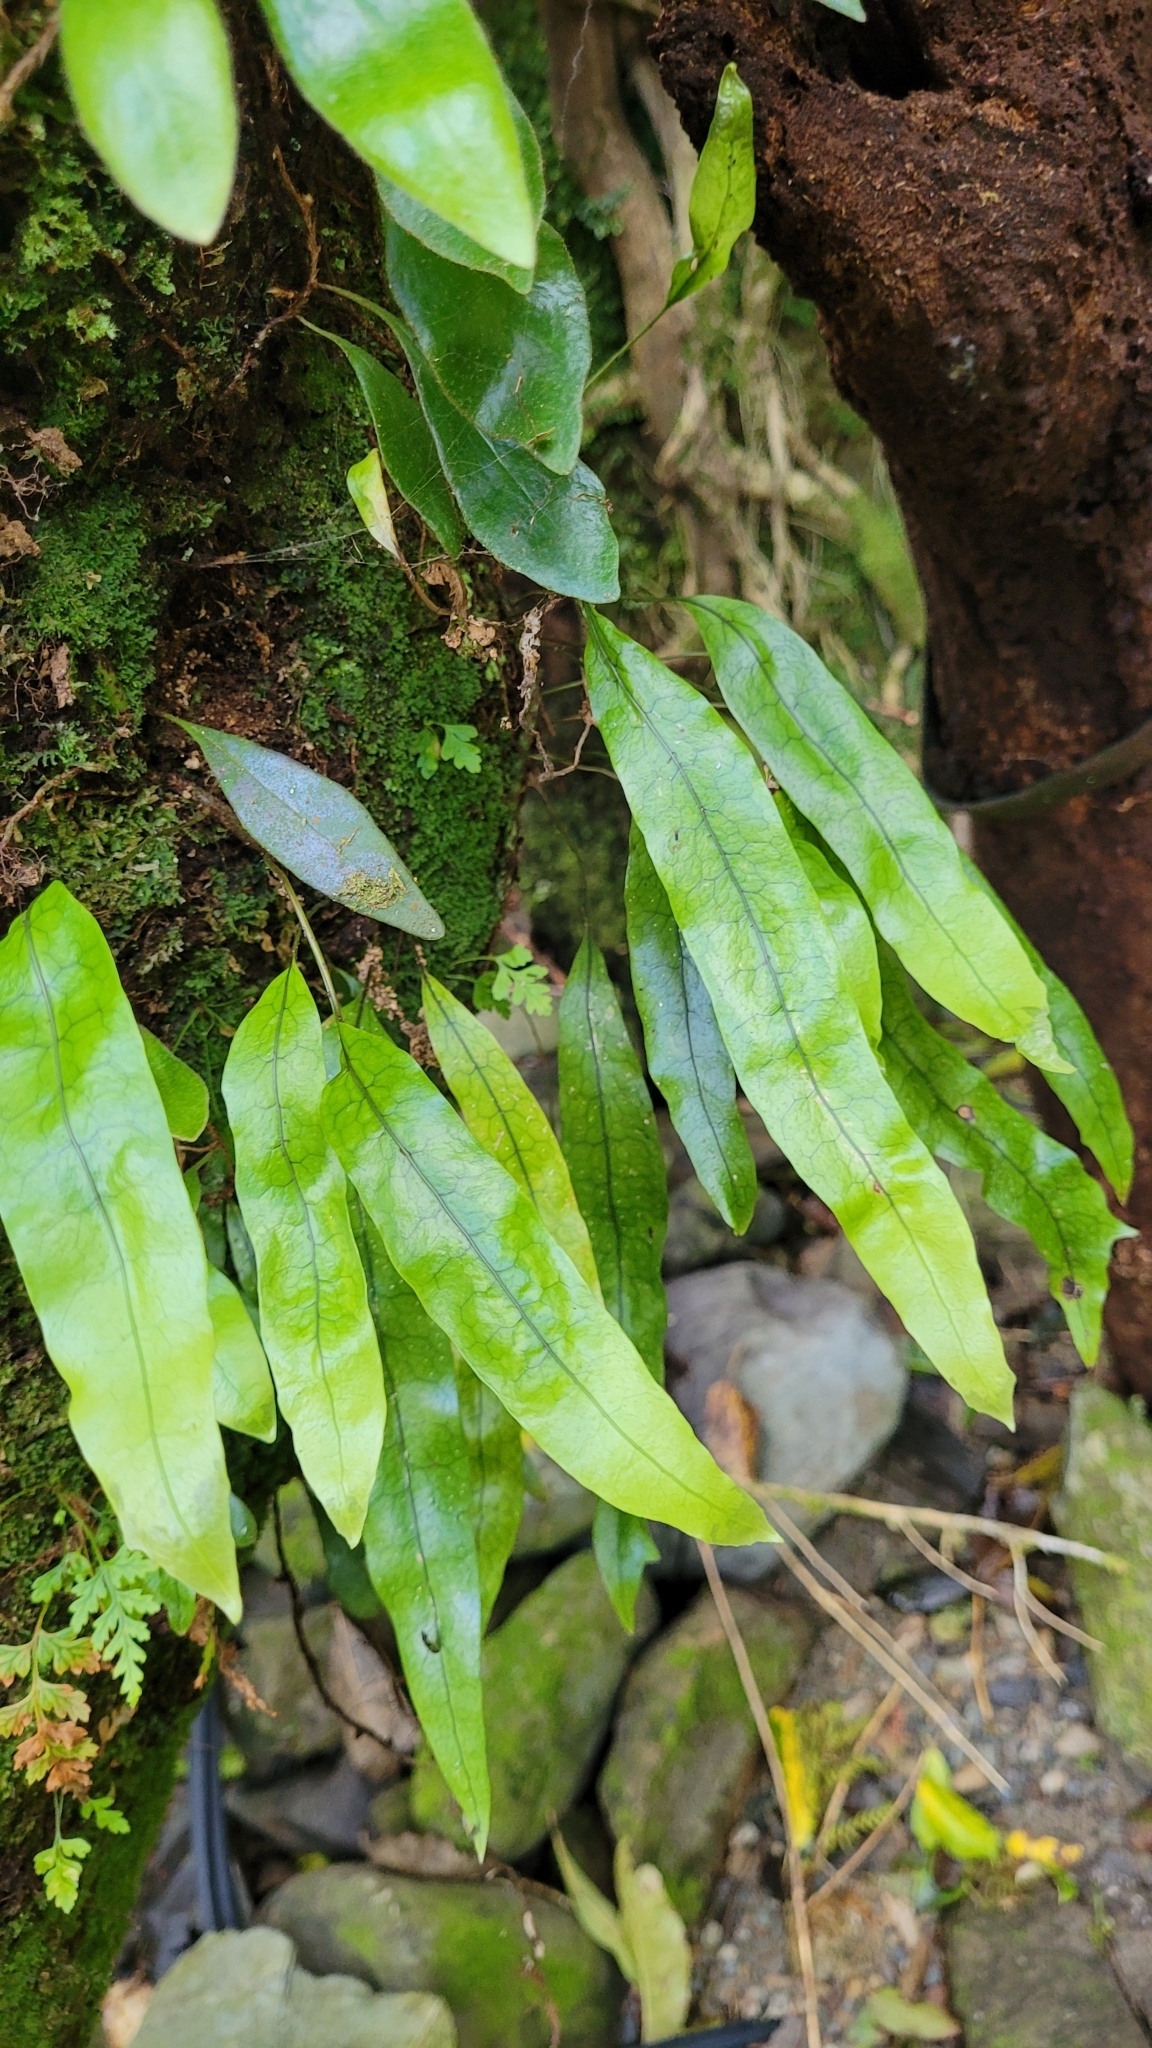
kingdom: Plantae
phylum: Tracheophyta
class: Polypodiopsida
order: Polypodiales
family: Polypodiaceae
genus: Lecanopteris
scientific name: Lecanopteris pustulata
